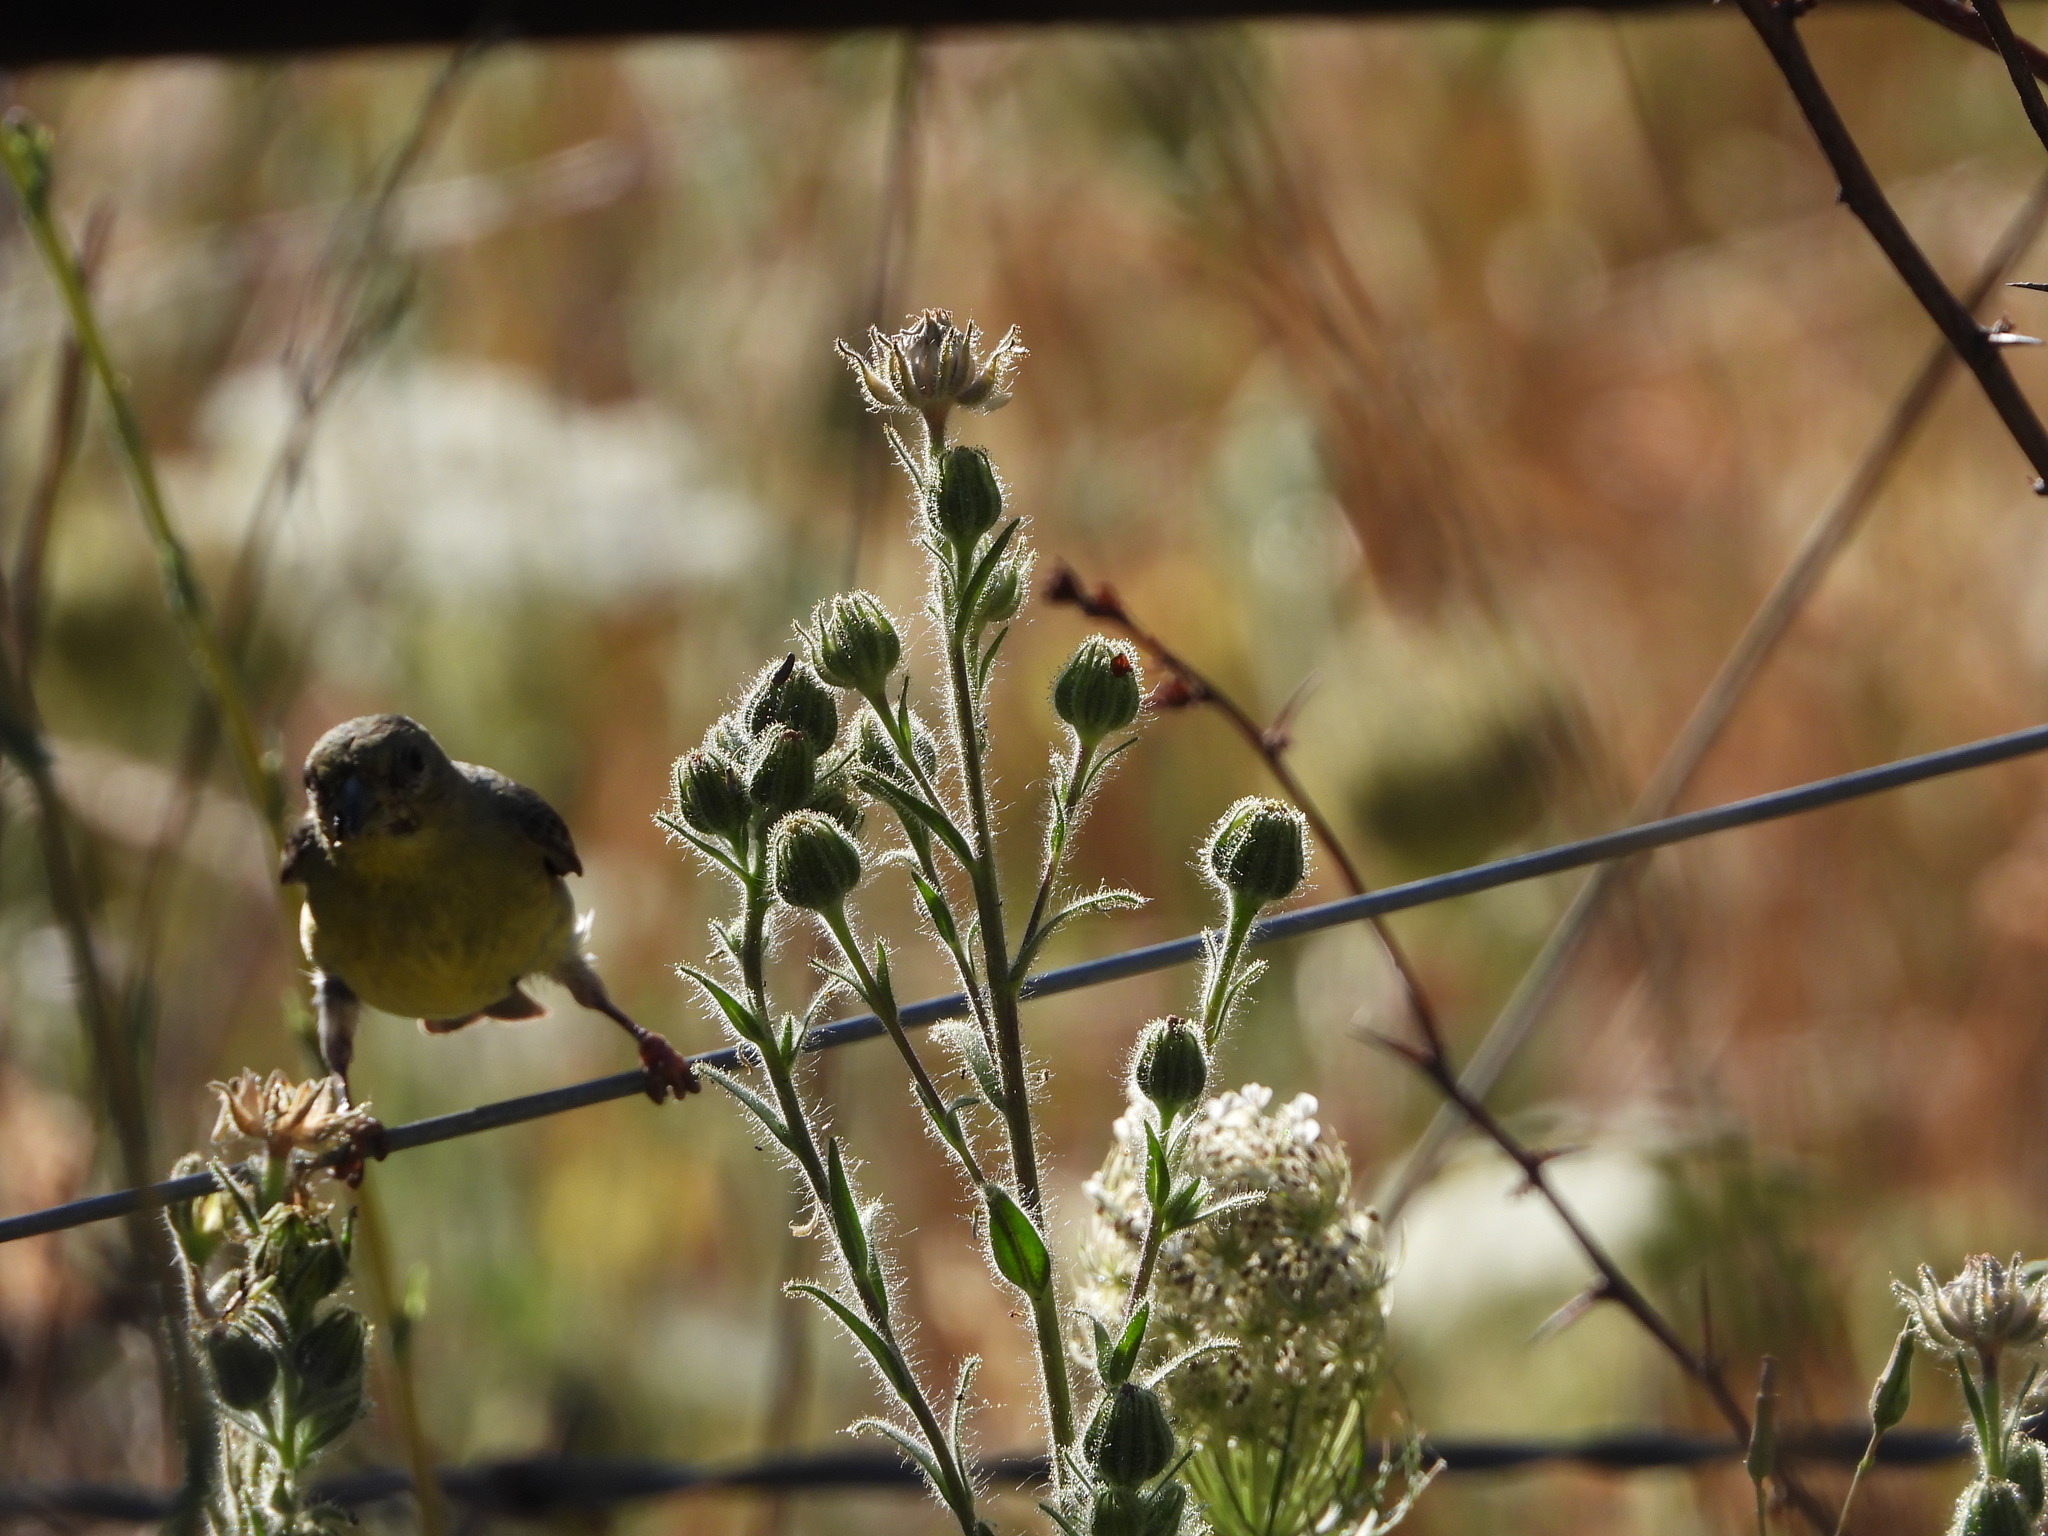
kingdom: Animalia
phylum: Chordata
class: Aves
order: Passeriformes
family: Fringillidae
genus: Spinus
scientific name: Spinus psaltria
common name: Lesser goldfinch
